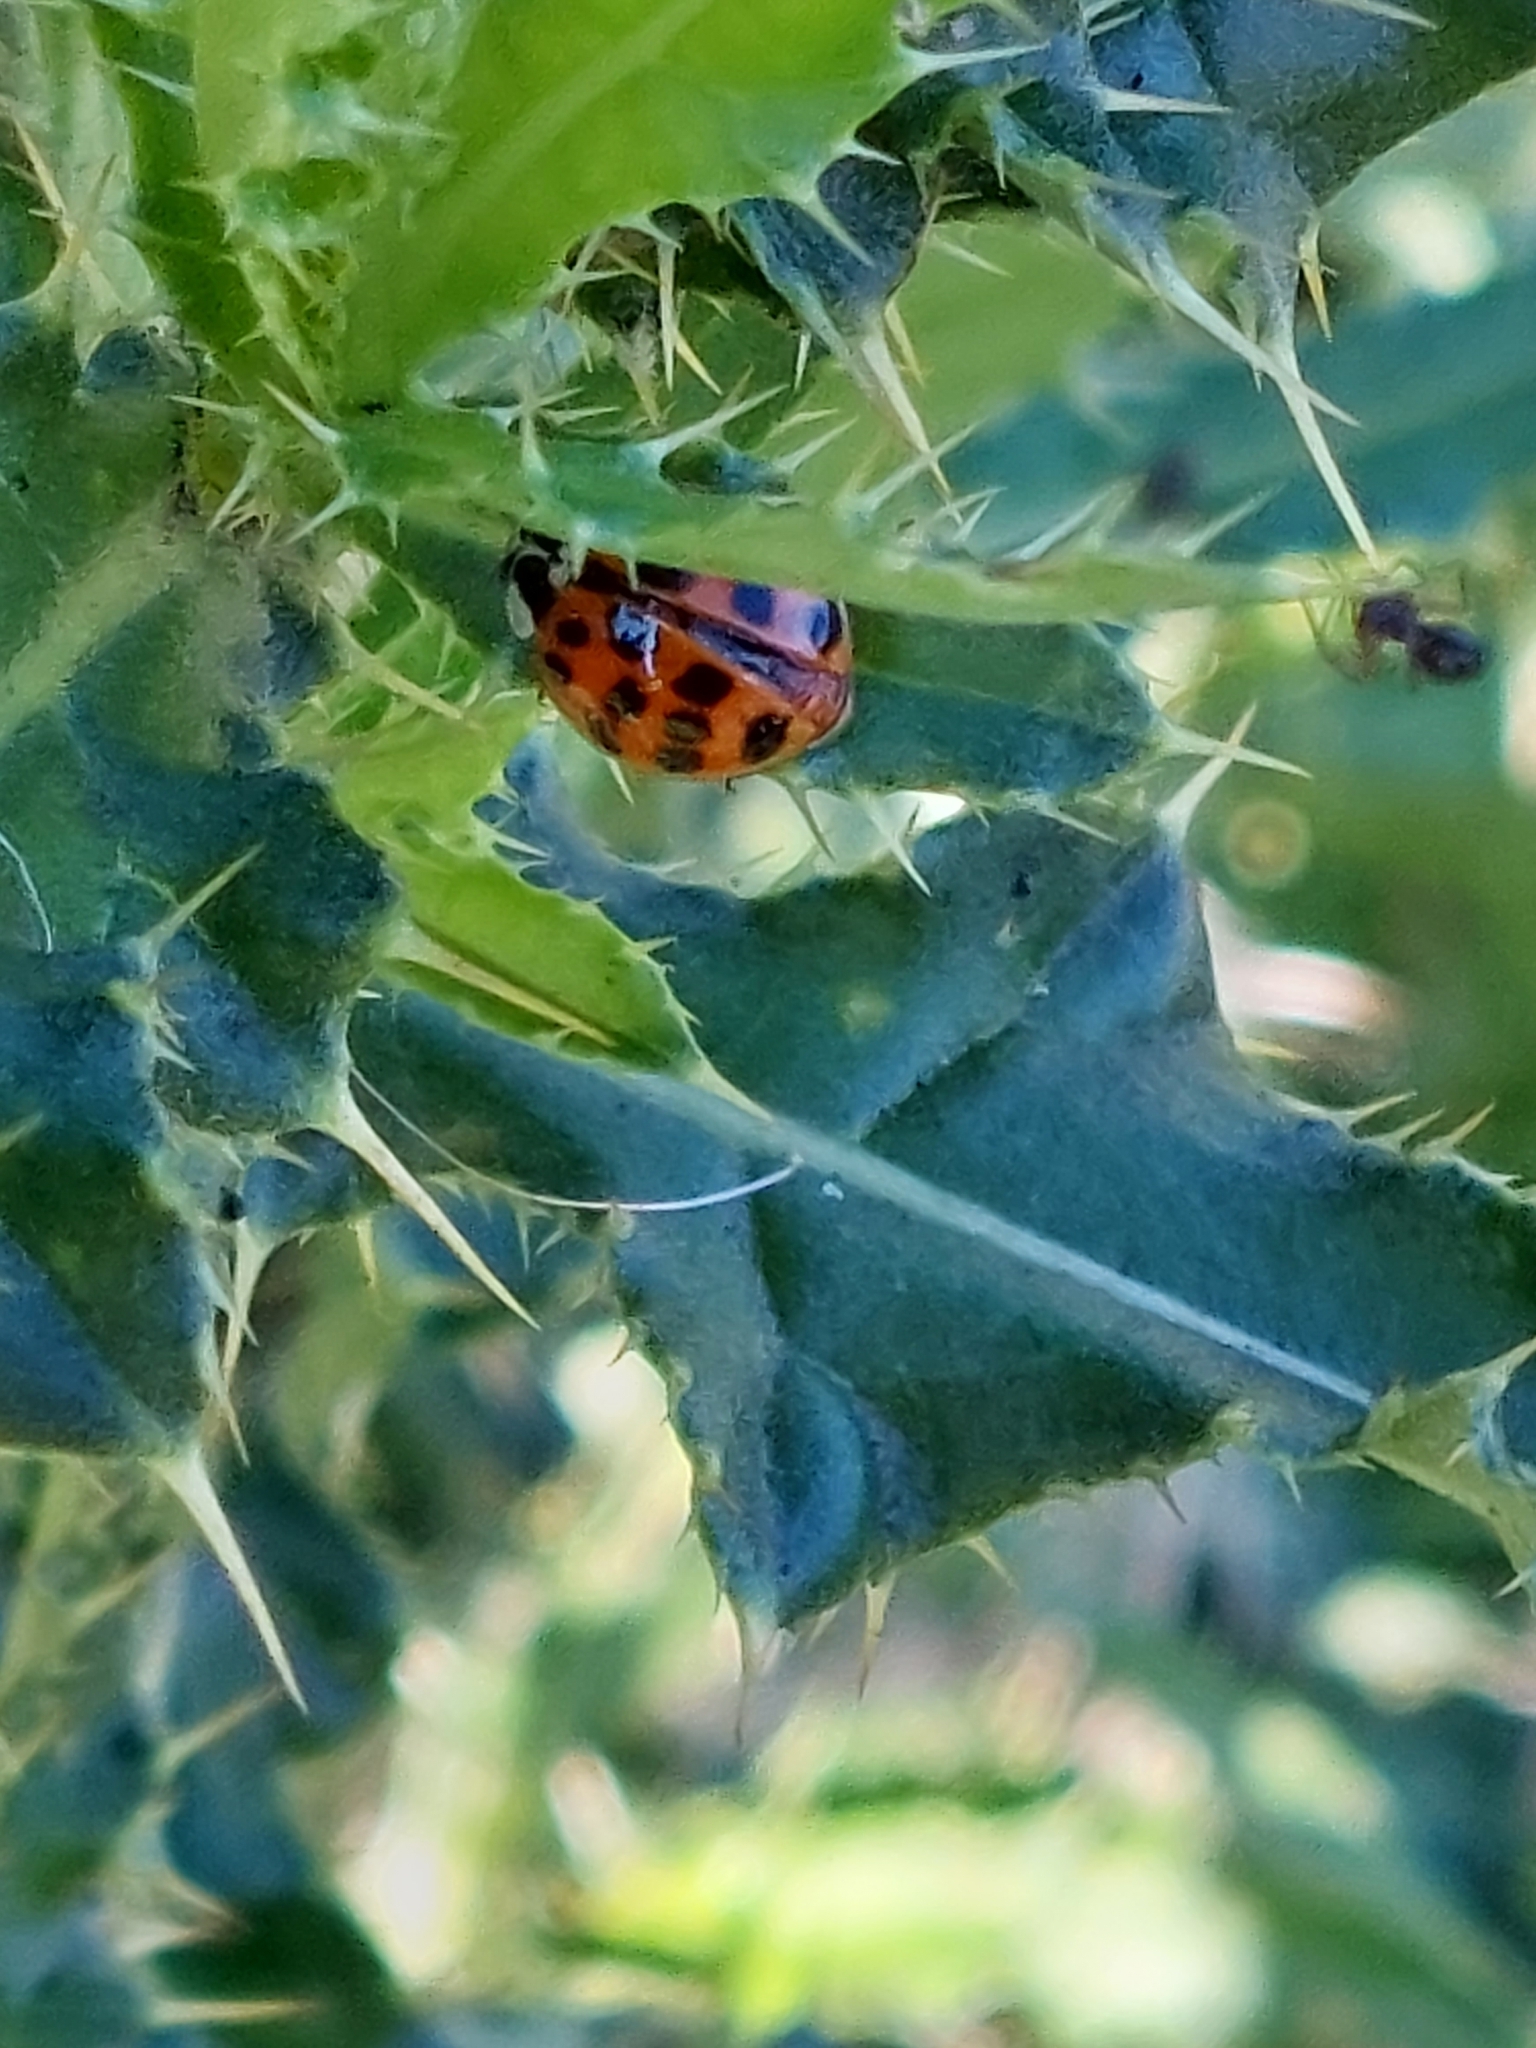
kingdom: Animalia
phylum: Arthropoda
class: Insecta
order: Coleoptera
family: Coccinellidae
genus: Harmonia
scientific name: Harmonia axyridis
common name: Harlequin ladybird
